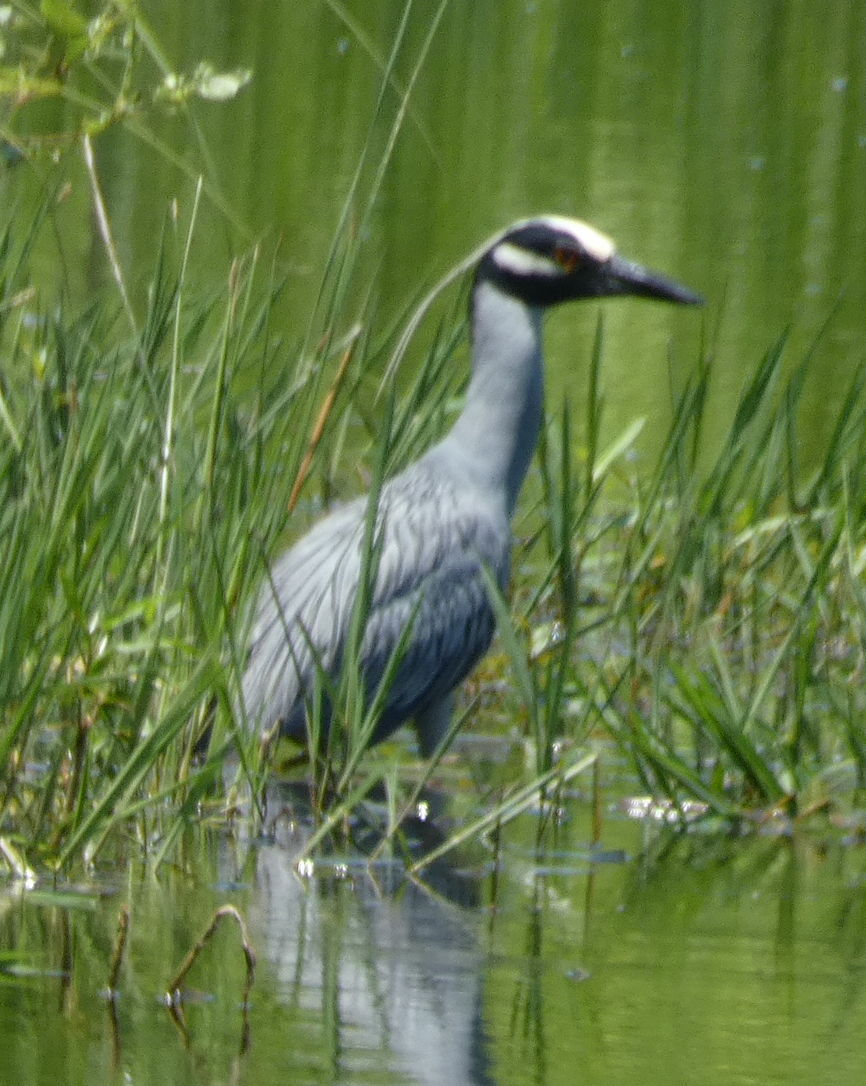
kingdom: Animalia
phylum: Chordata
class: Aves
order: Pelecaniformes
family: Ardeidae
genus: Nyctanassa
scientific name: Nyctanassa violacea
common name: Yellow-crowned night heron
